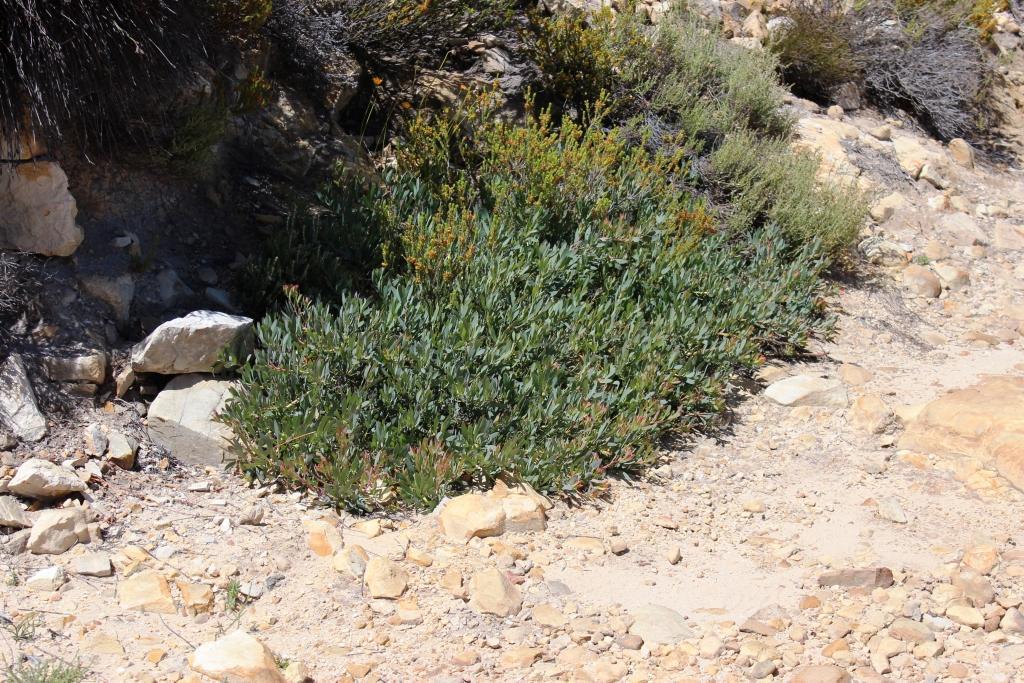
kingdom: Plantae
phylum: Tracheophyta
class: Magnoliopsida
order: Proteales
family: Proteaceae
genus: Protea
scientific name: Protea effusa
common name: Scarlet sugarbush
